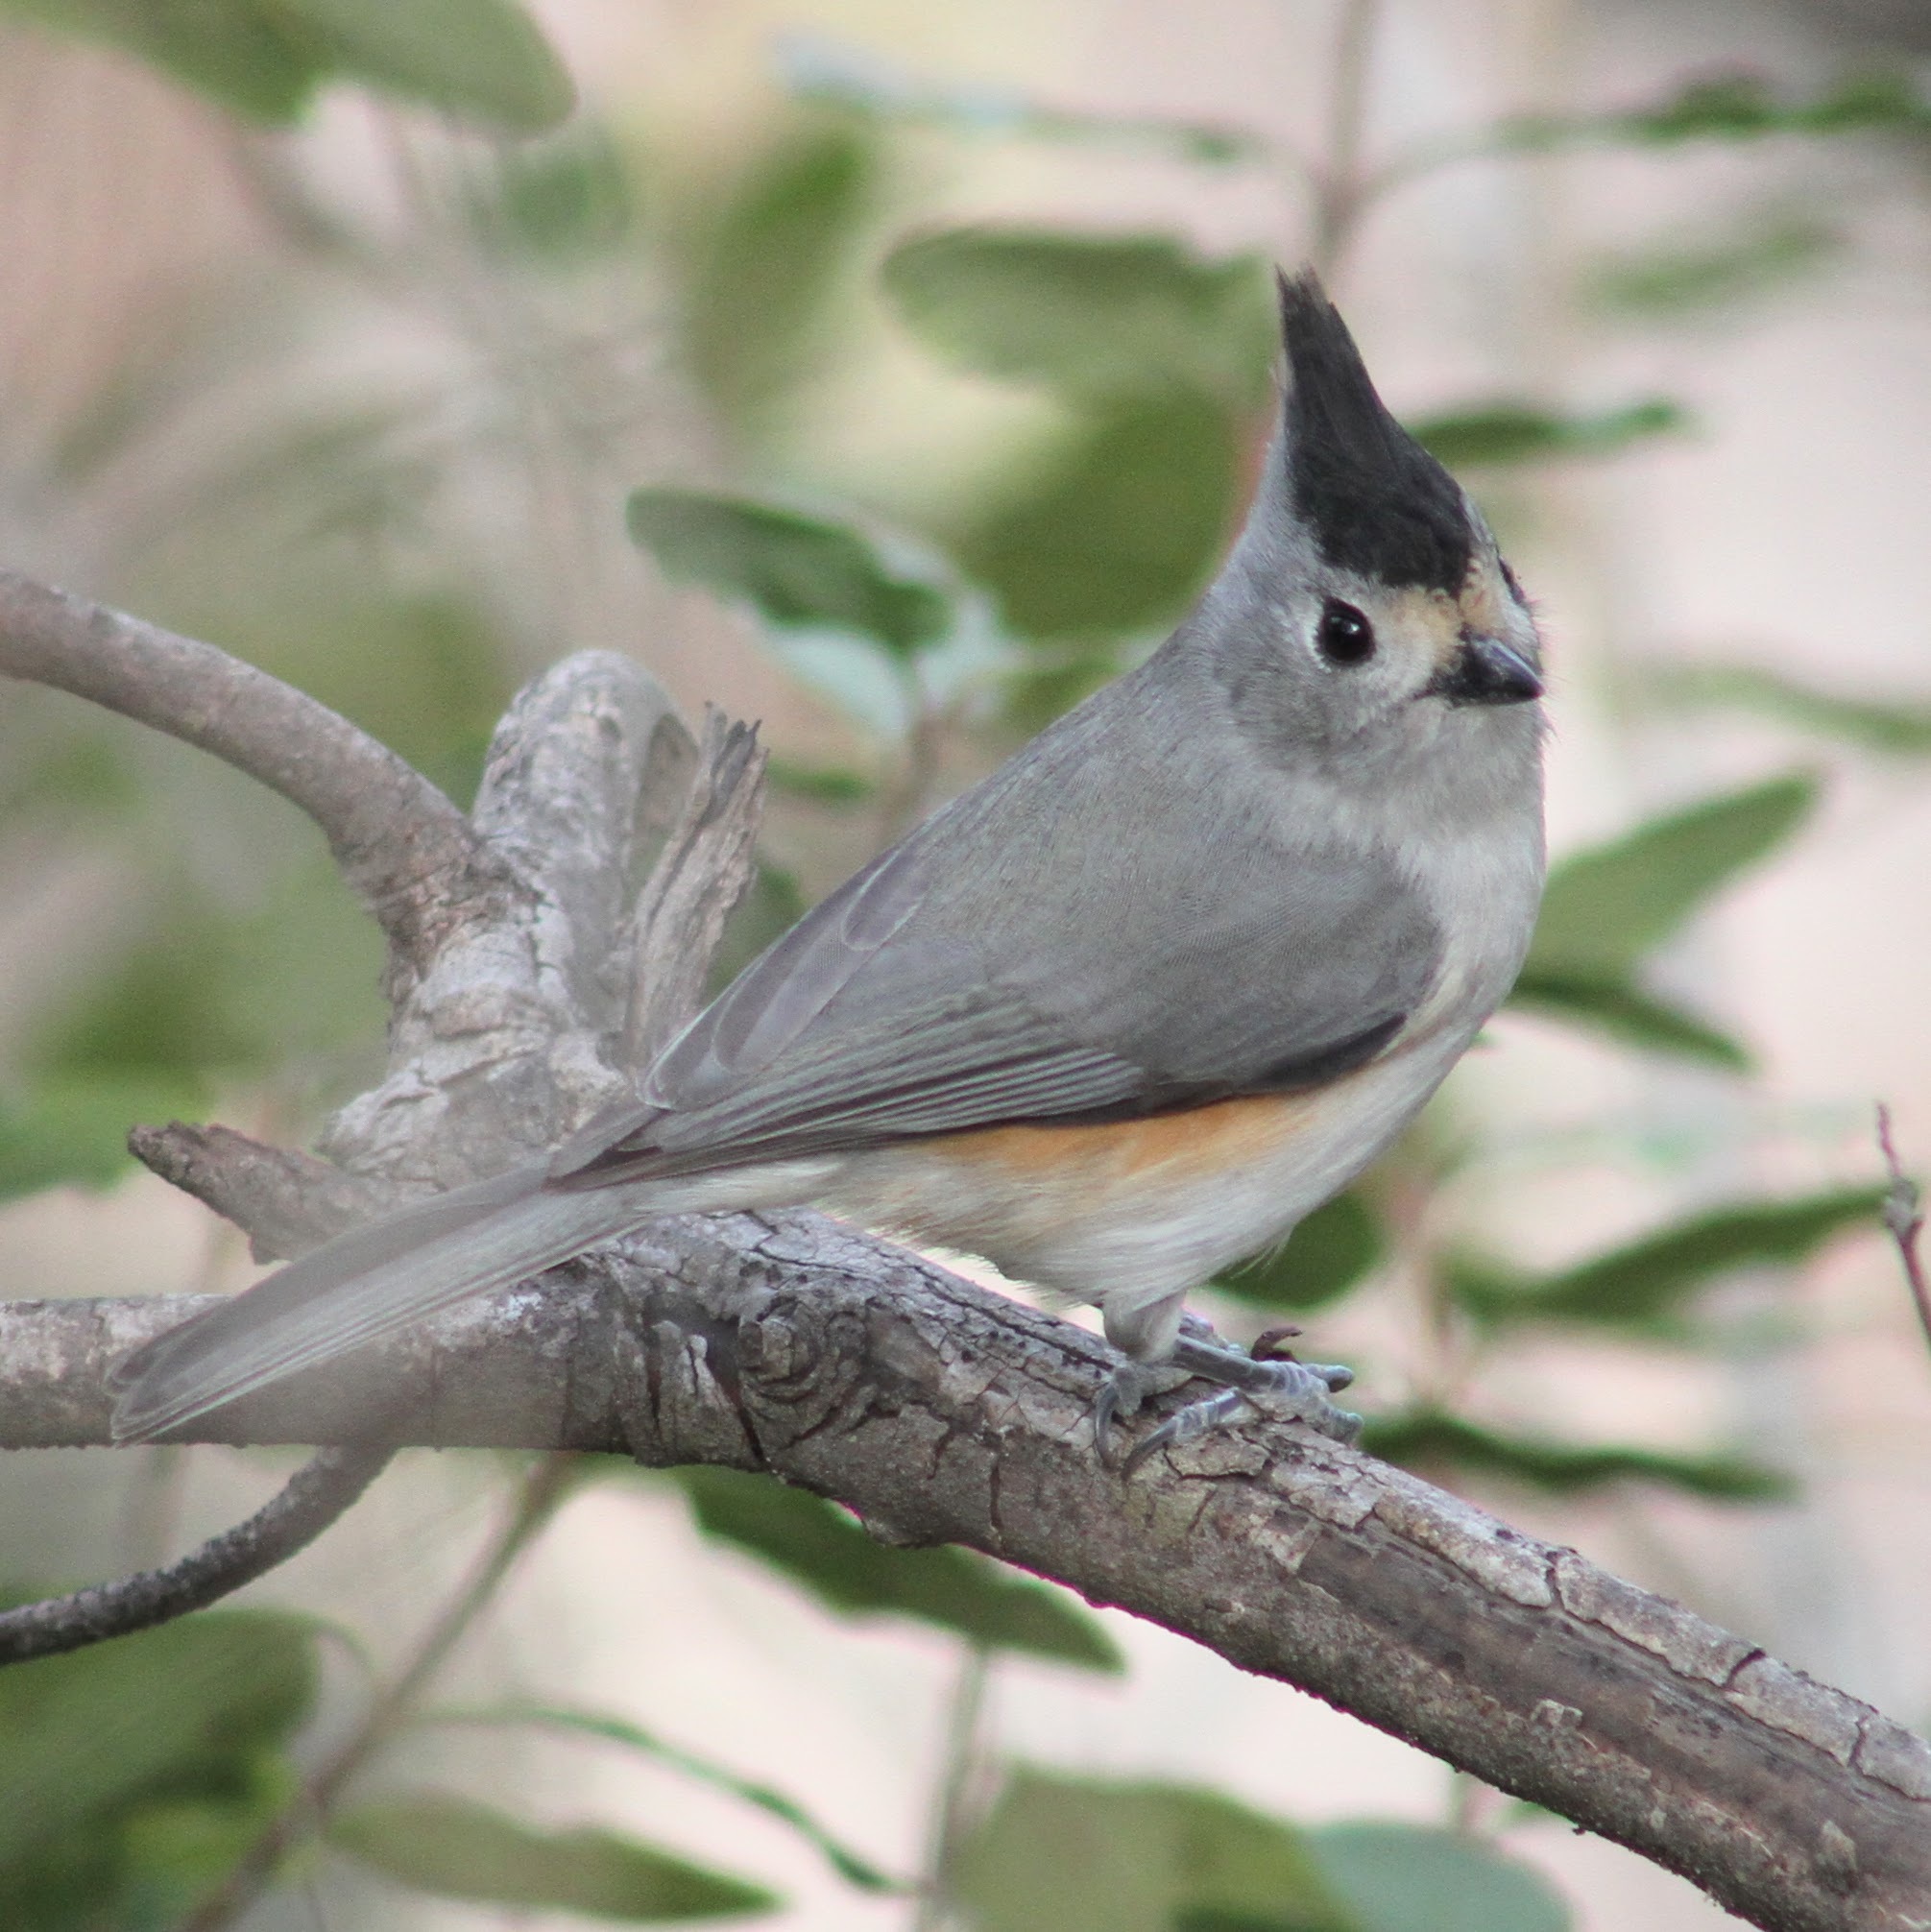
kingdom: Animalia
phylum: Chordata
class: Aves
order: Passeriformes
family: Paridae
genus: Baeolophus
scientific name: Baeolophus atricristatus
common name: Black-crested titmouse
